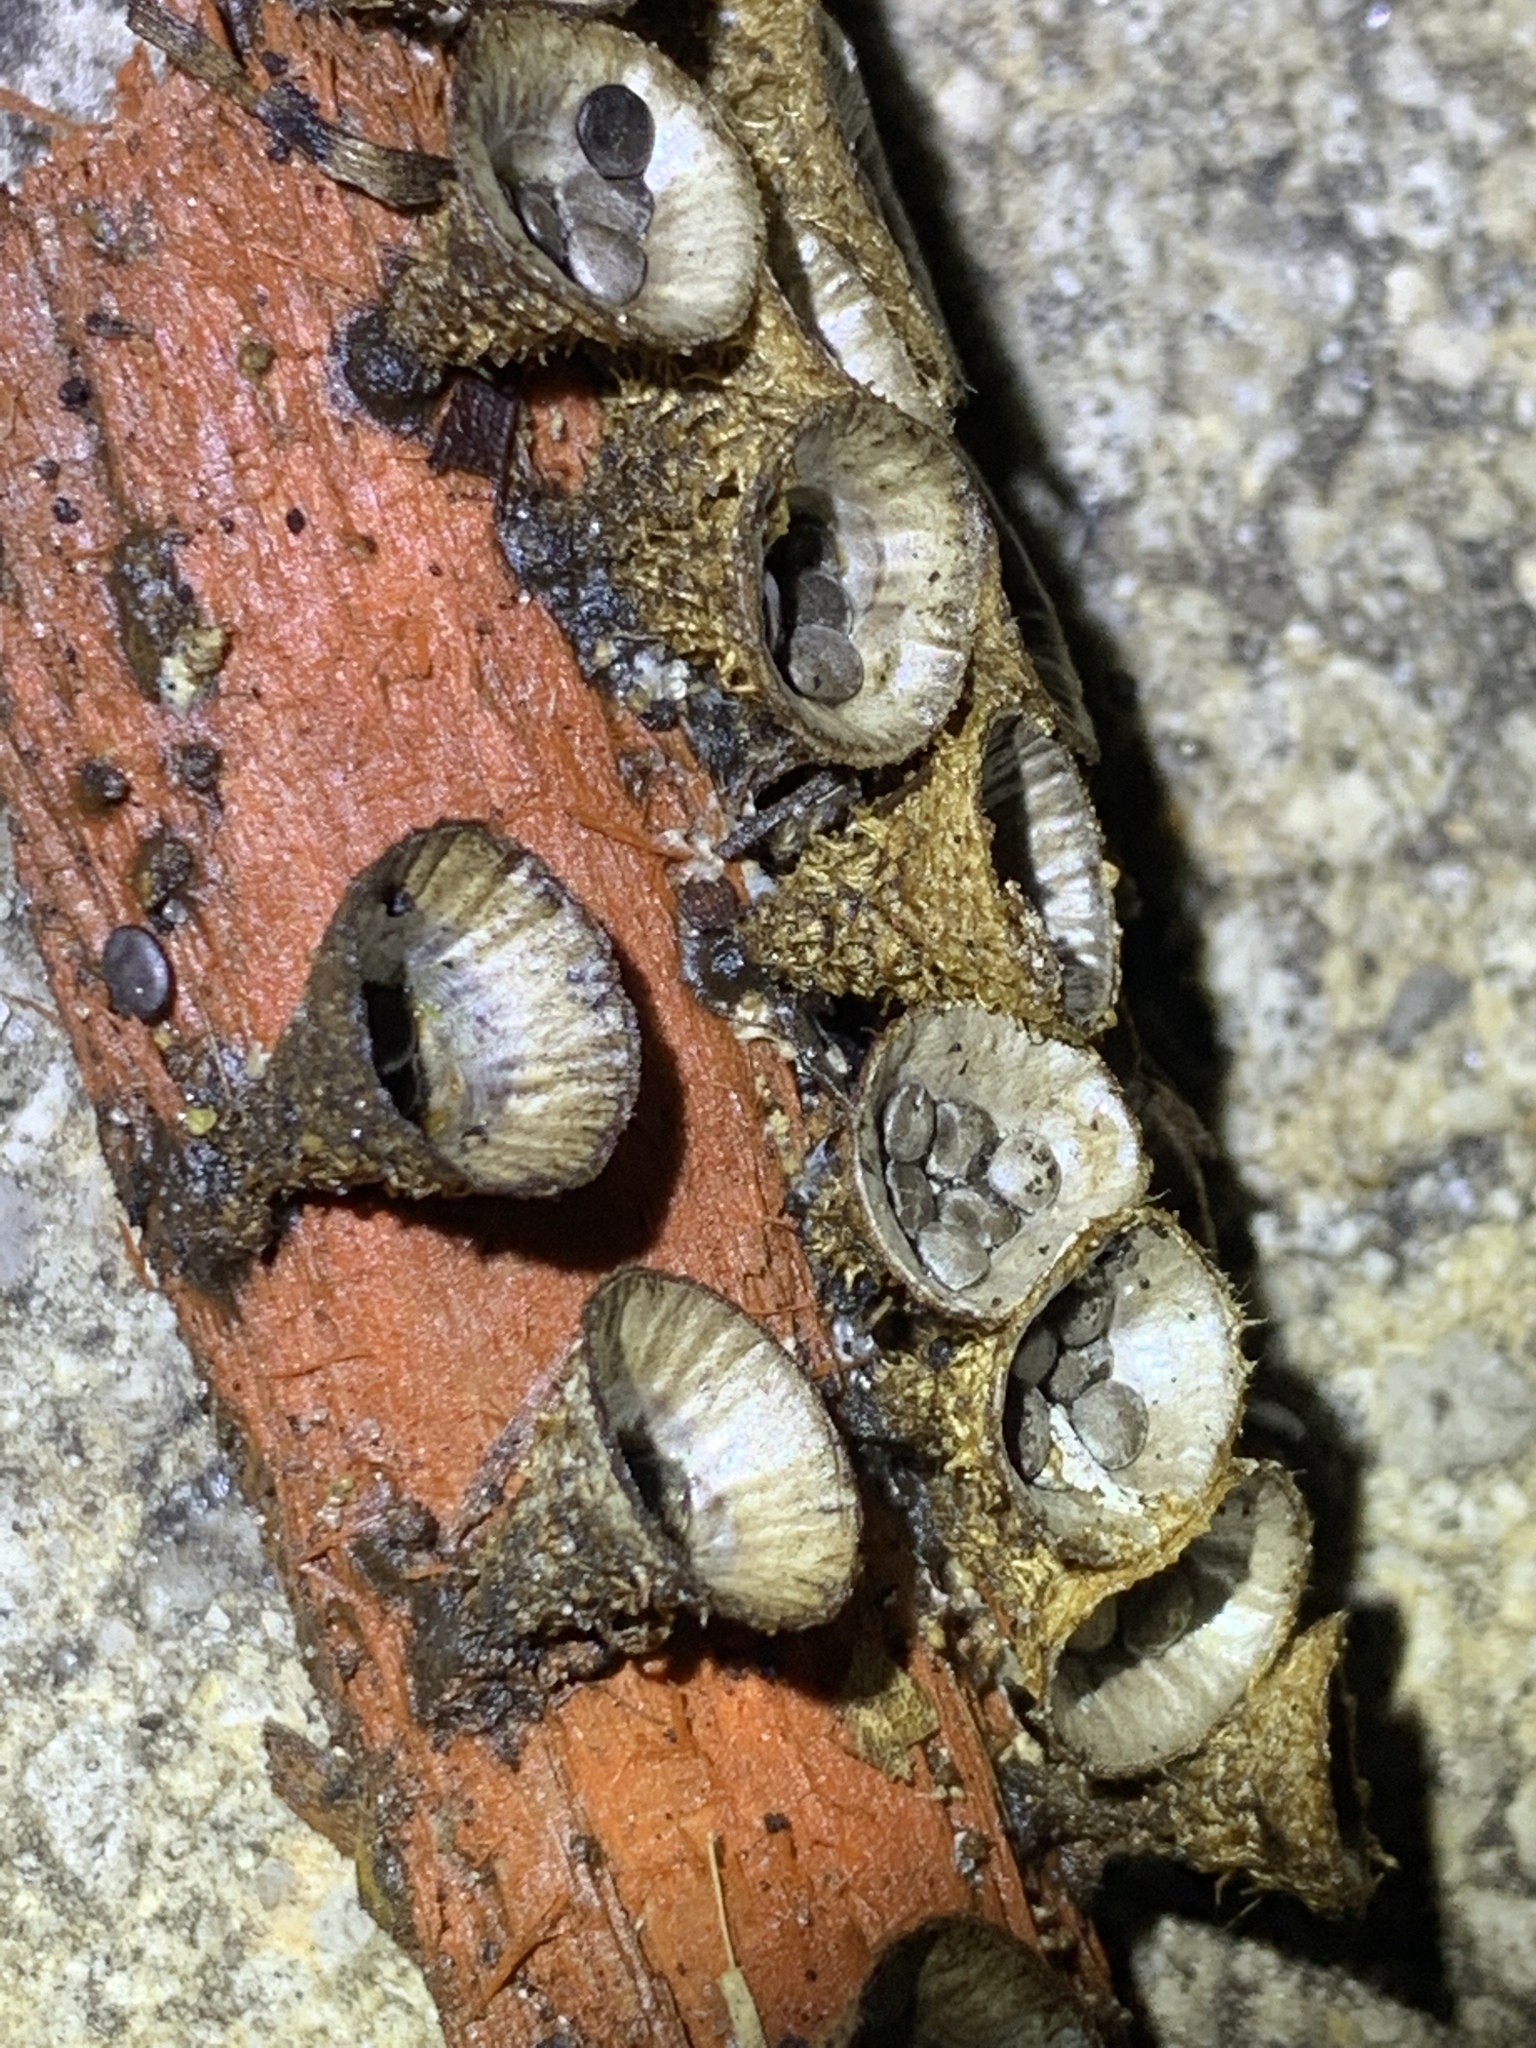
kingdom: Fungi
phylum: Basidiomycota
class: Agaricomycetes
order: Agaricales
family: Agaricaceae
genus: Cyathus
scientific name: Cyathus striatus
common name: Fluted bird's nest
